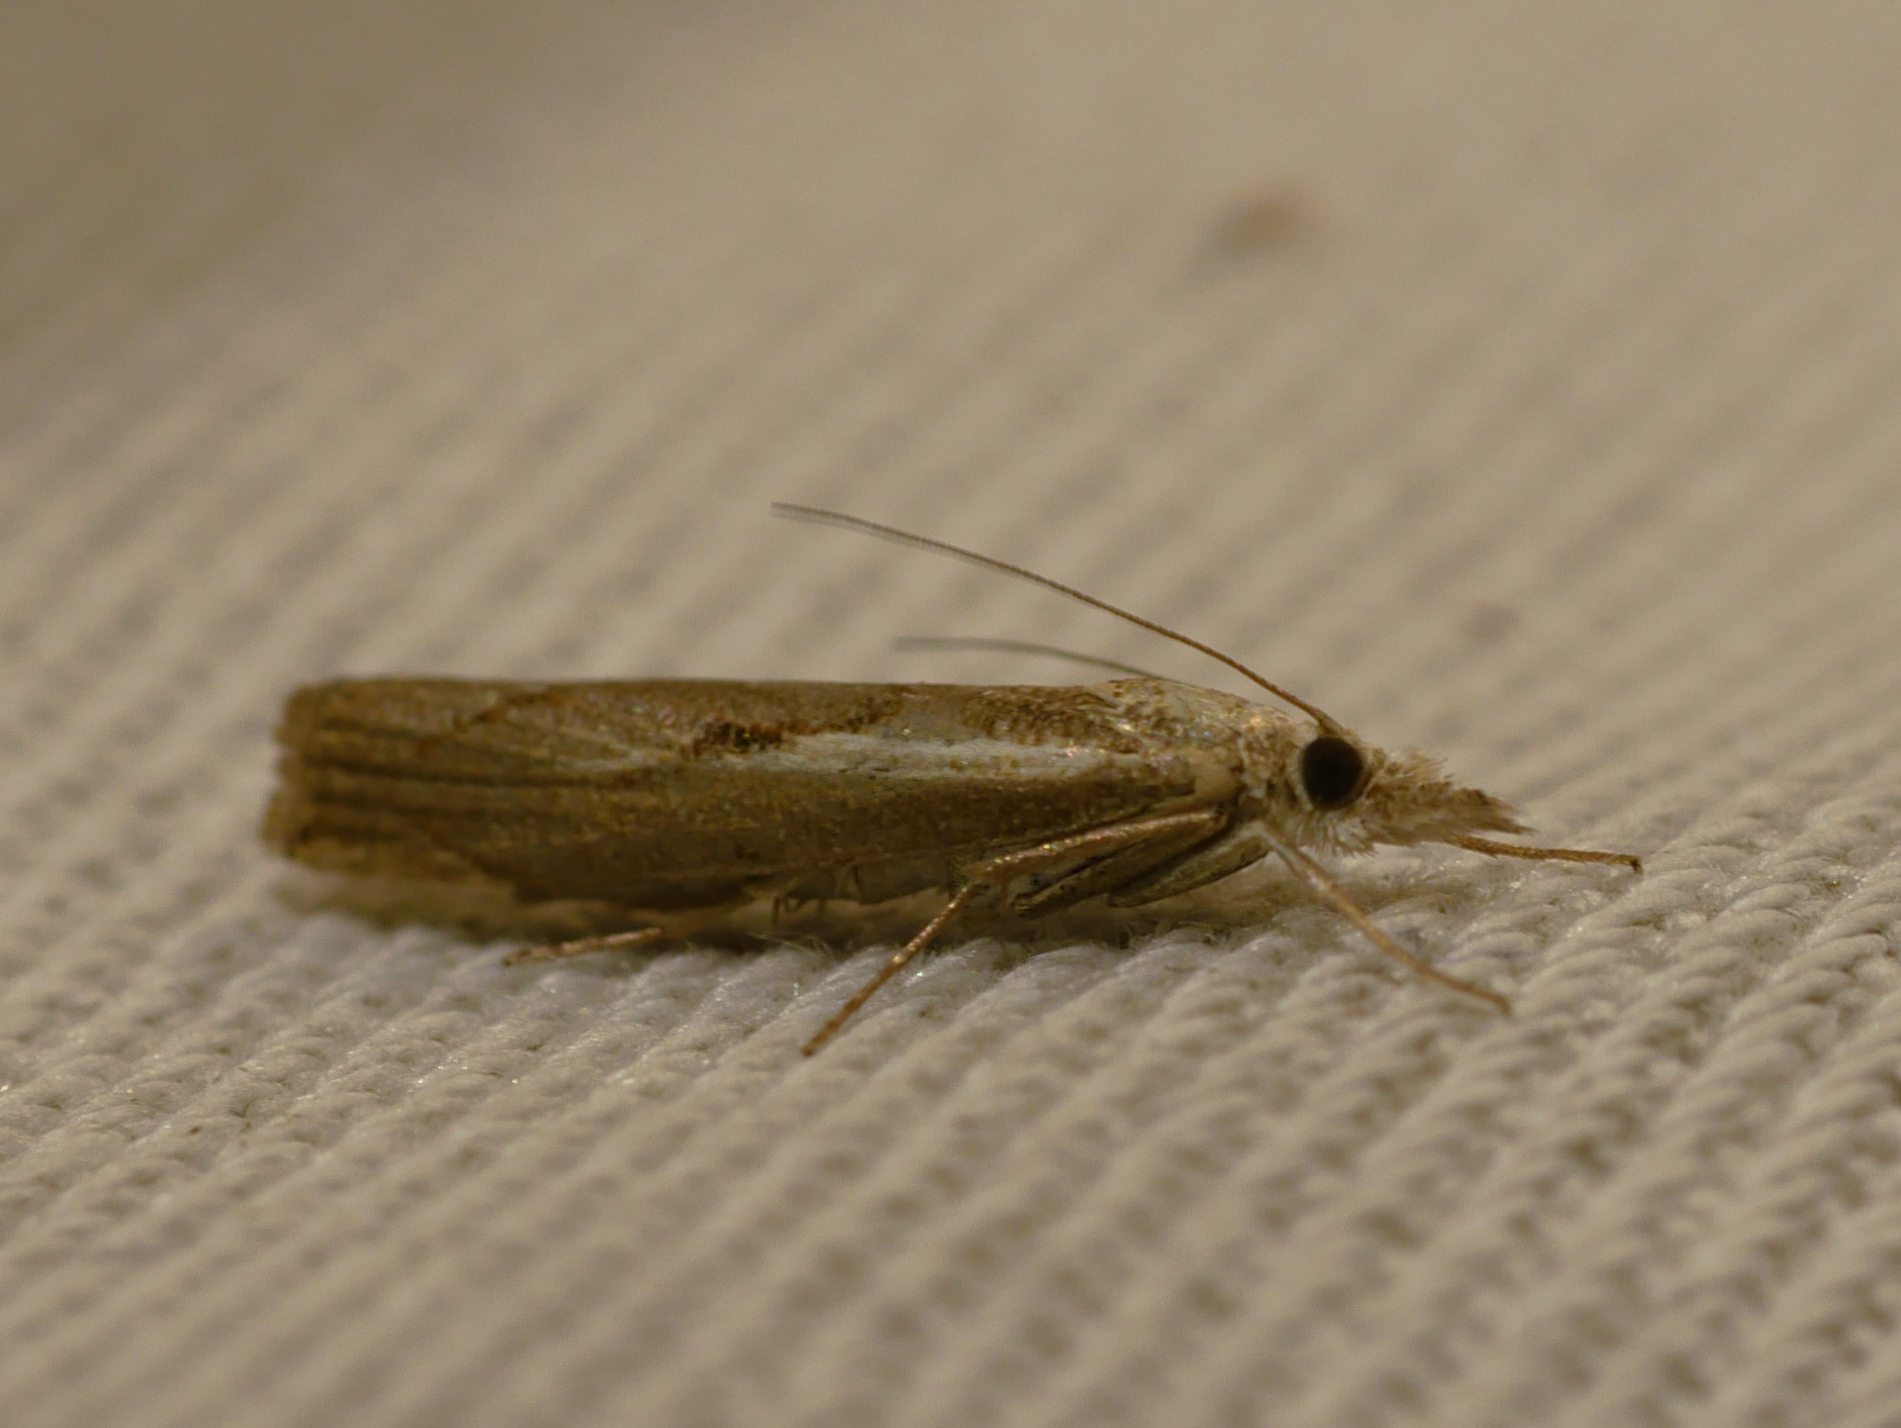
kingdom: Animalia
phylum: Arthropoda
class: Insecta
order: Lepidoptera
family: Crambidae
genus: Agriphila
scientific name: Agriphila geniculea
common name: Elbow-stripe grass-veneer
